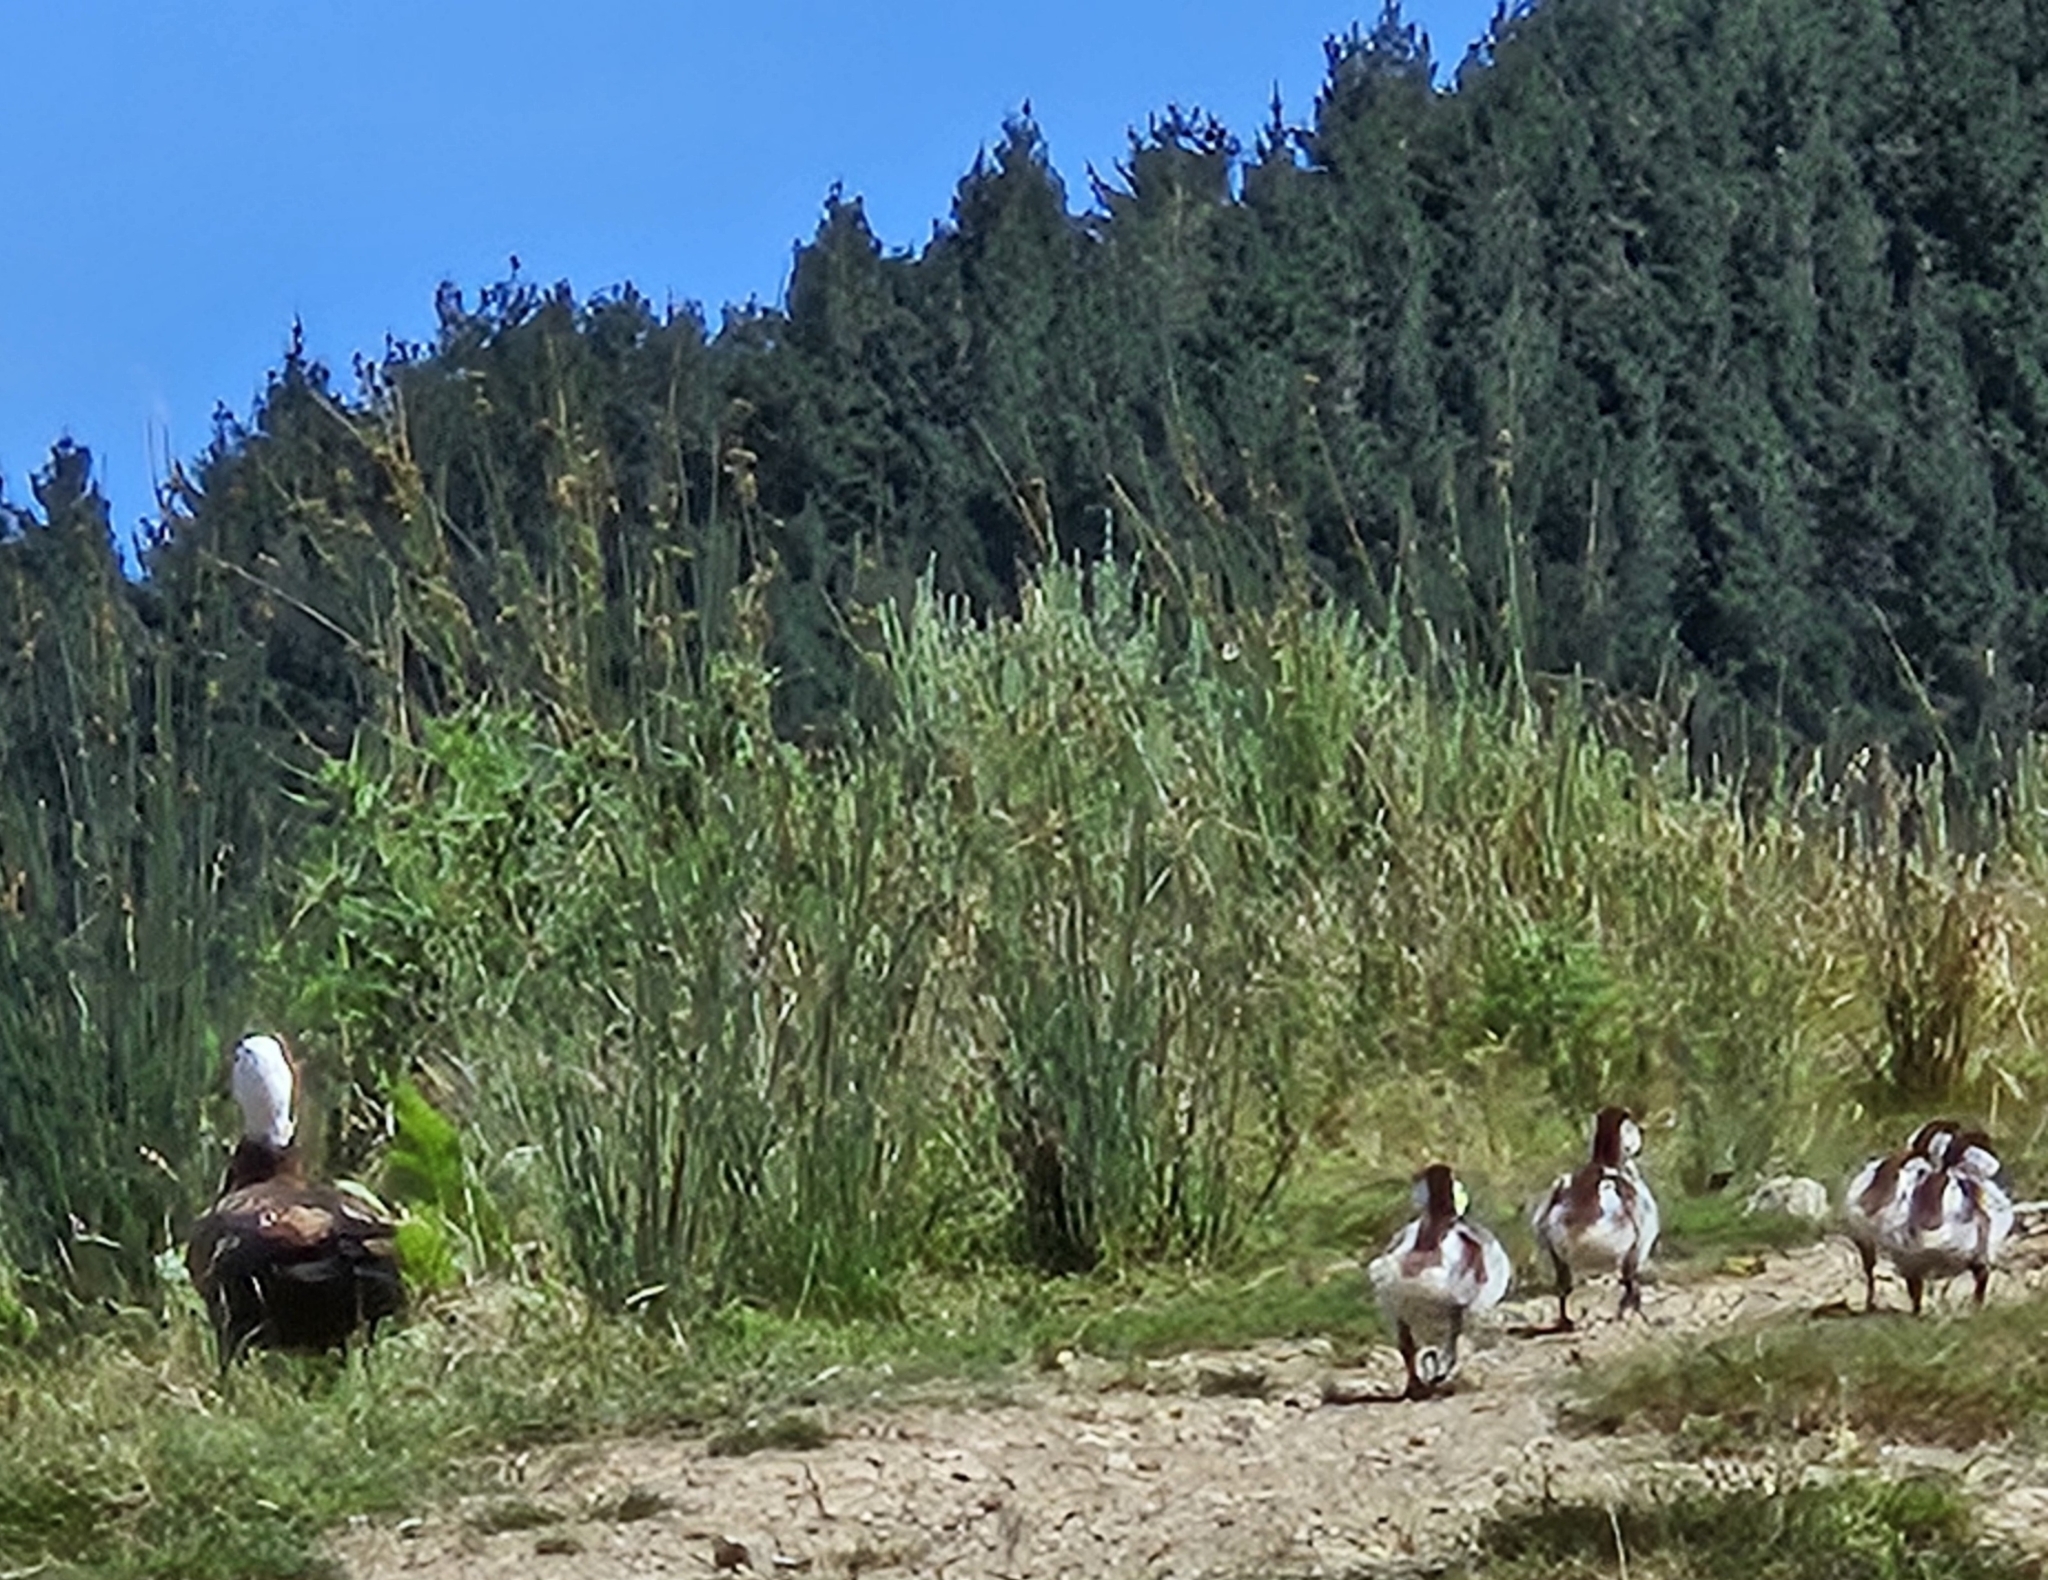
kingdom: Animalia
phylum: Chordata
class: Aves
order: Anseriformes
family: Anatidae
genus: Tadorna
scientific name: Tadorna variegata
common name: Paradise shelduck
